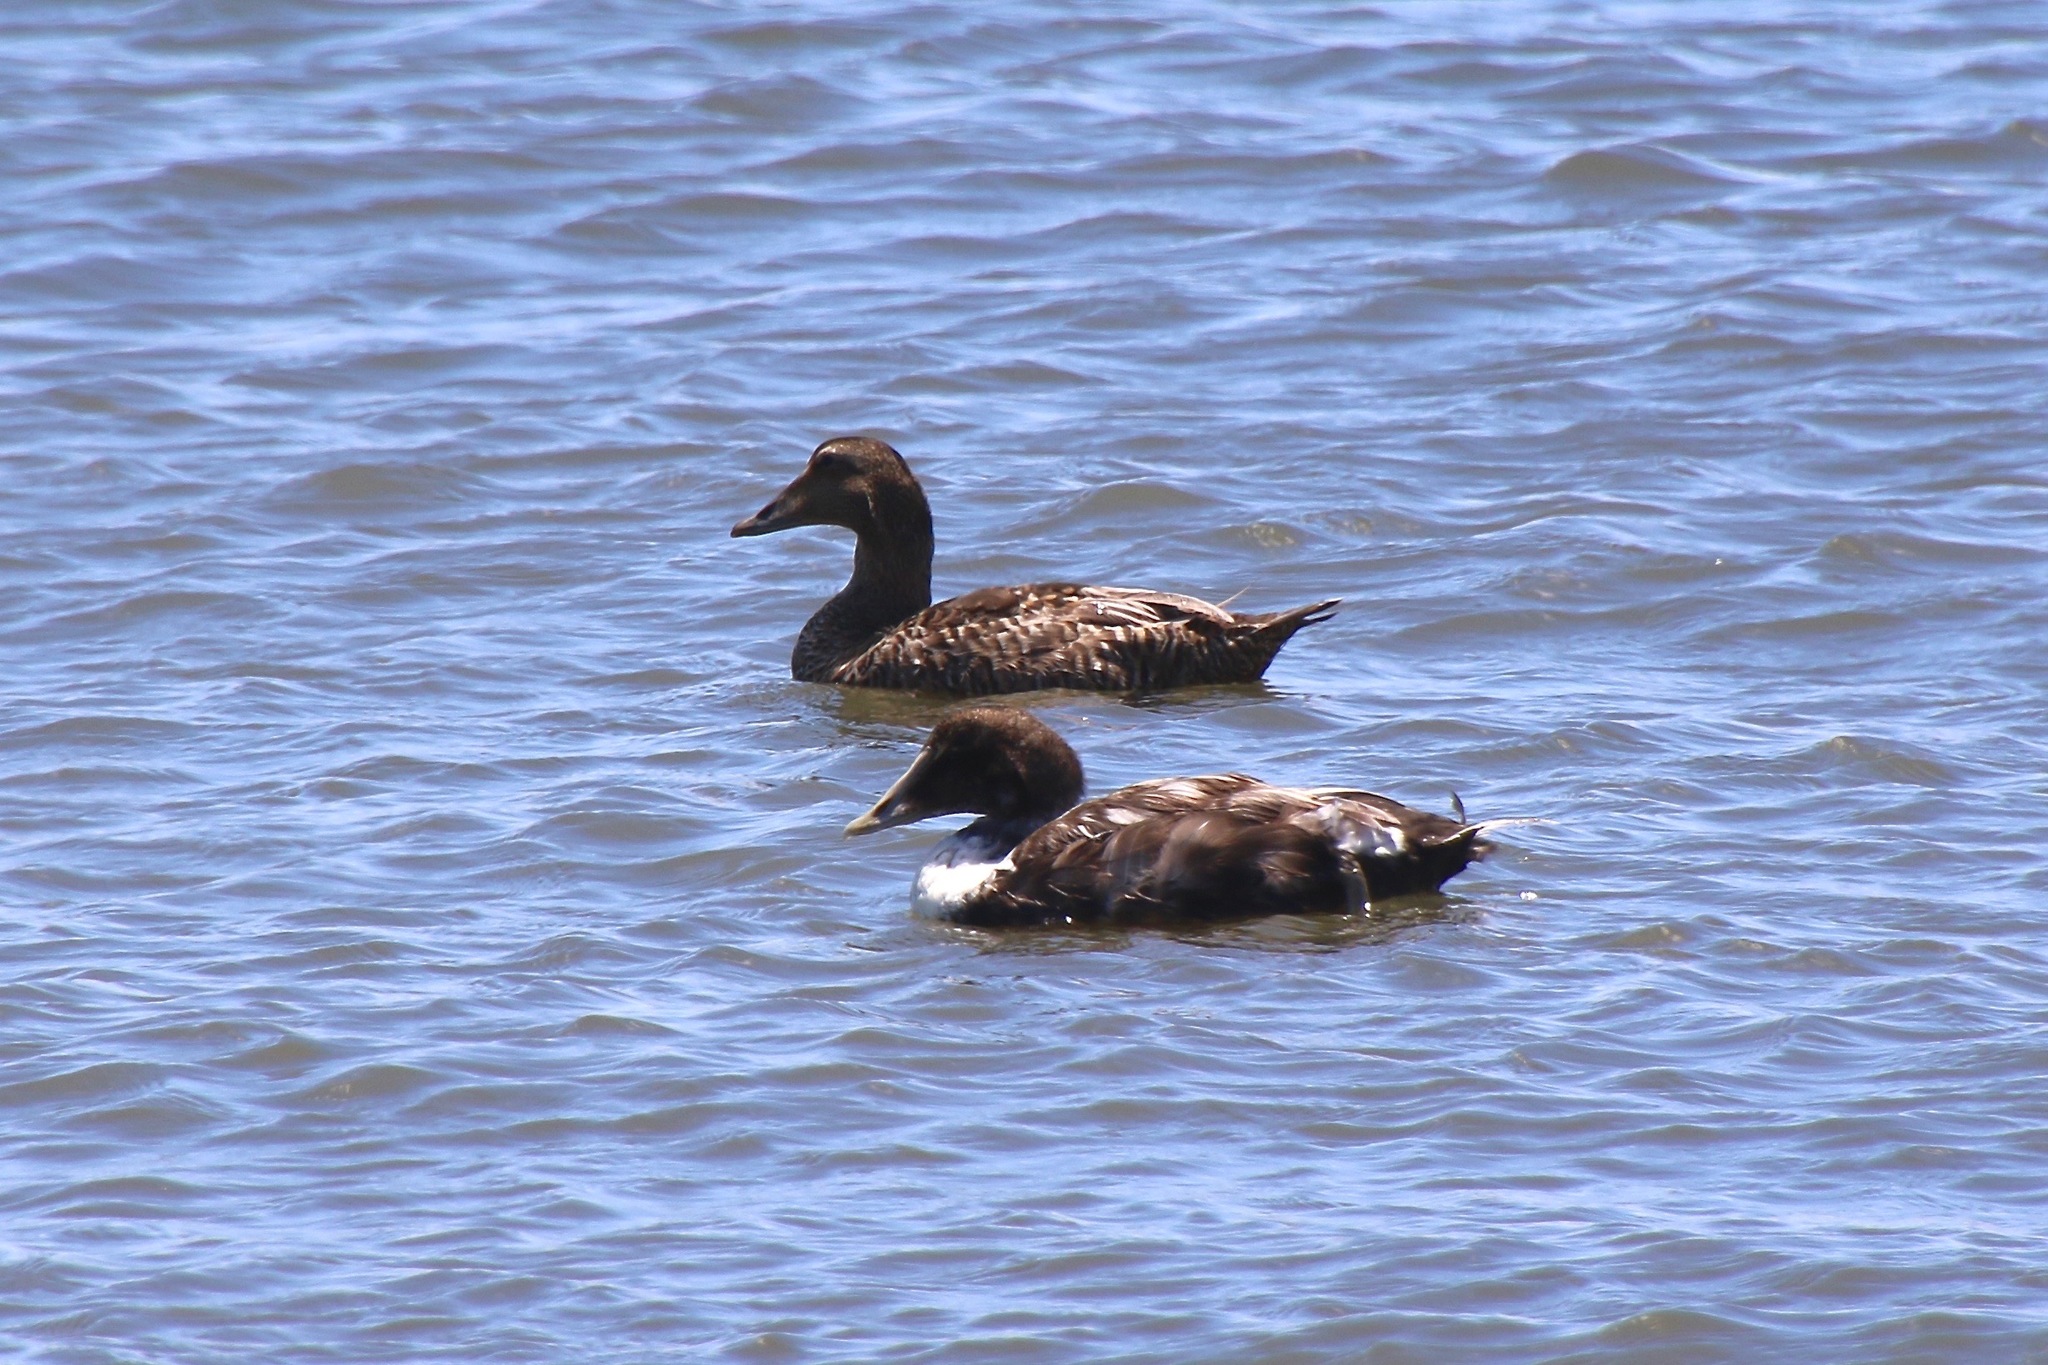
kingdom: Animalia
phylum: Chordata
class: Aves
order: Anseriformes
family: Anatidae
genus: Somateria
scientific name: Somateria mollissima
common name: Common eider
